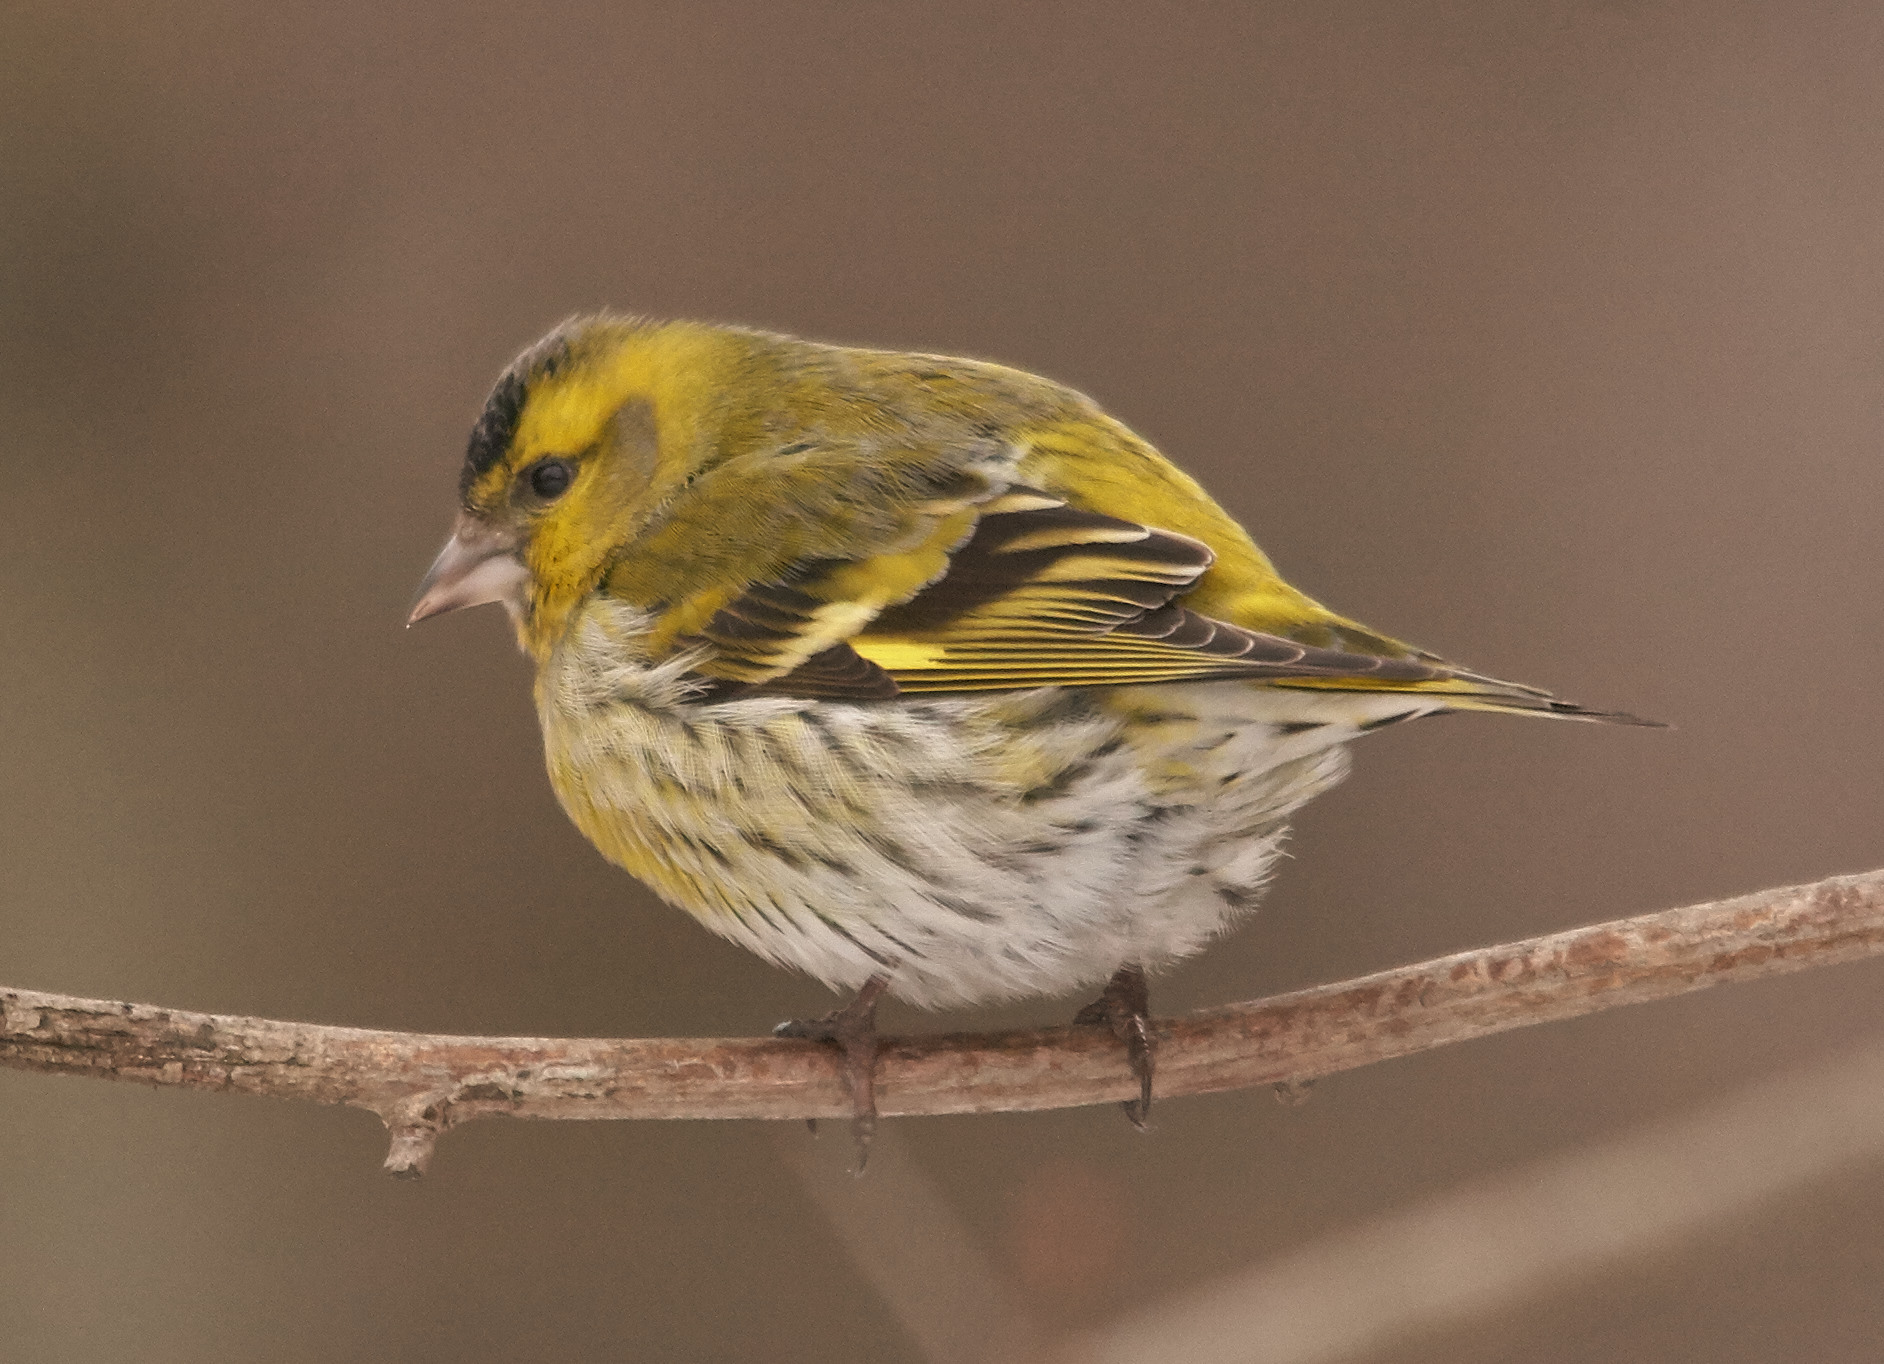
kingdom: Animalia
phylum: Chordata
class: Aves
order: Passeriformes
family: Fringillidae
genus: Spinus
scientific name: Spinus spinus
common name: Eurasian siskin
